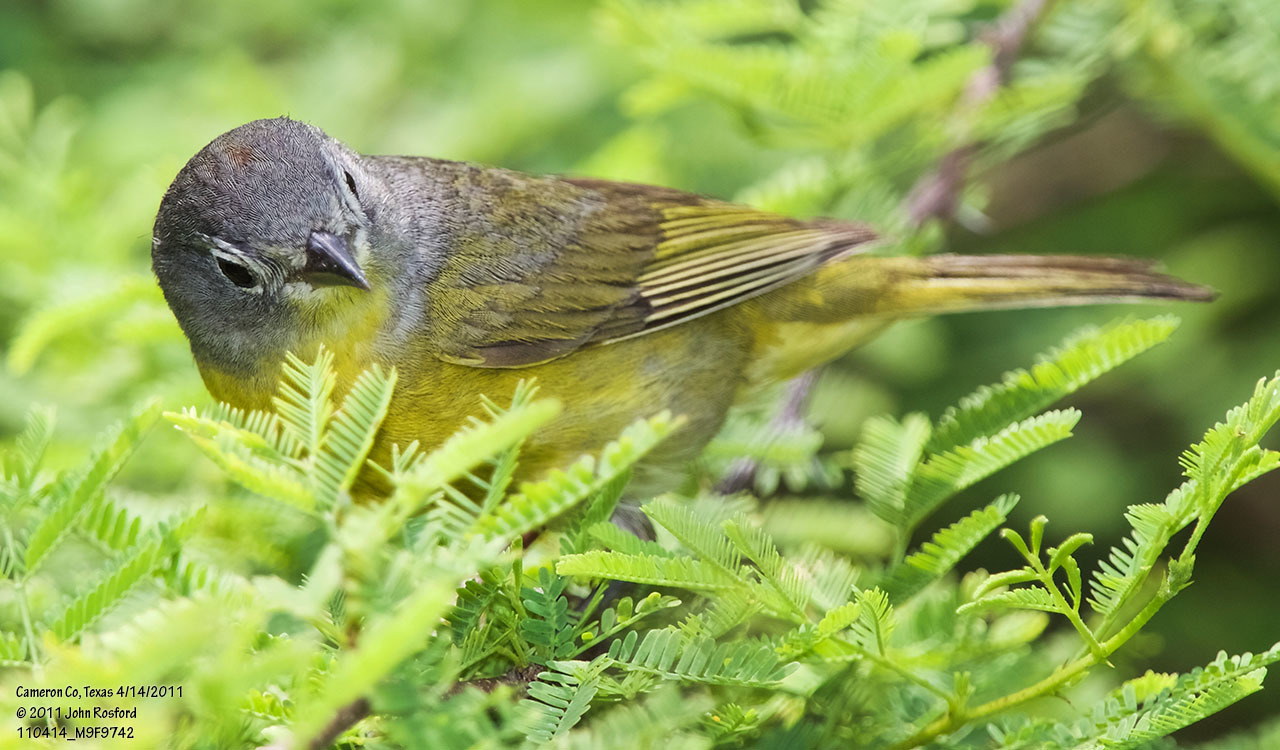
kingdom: Animalia
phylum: Chordata
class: Aves
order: Passeriformes
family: Parulidae
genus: Leiothlypis
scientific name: Leiothlypis ruficapilla
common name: Nashville warbler
